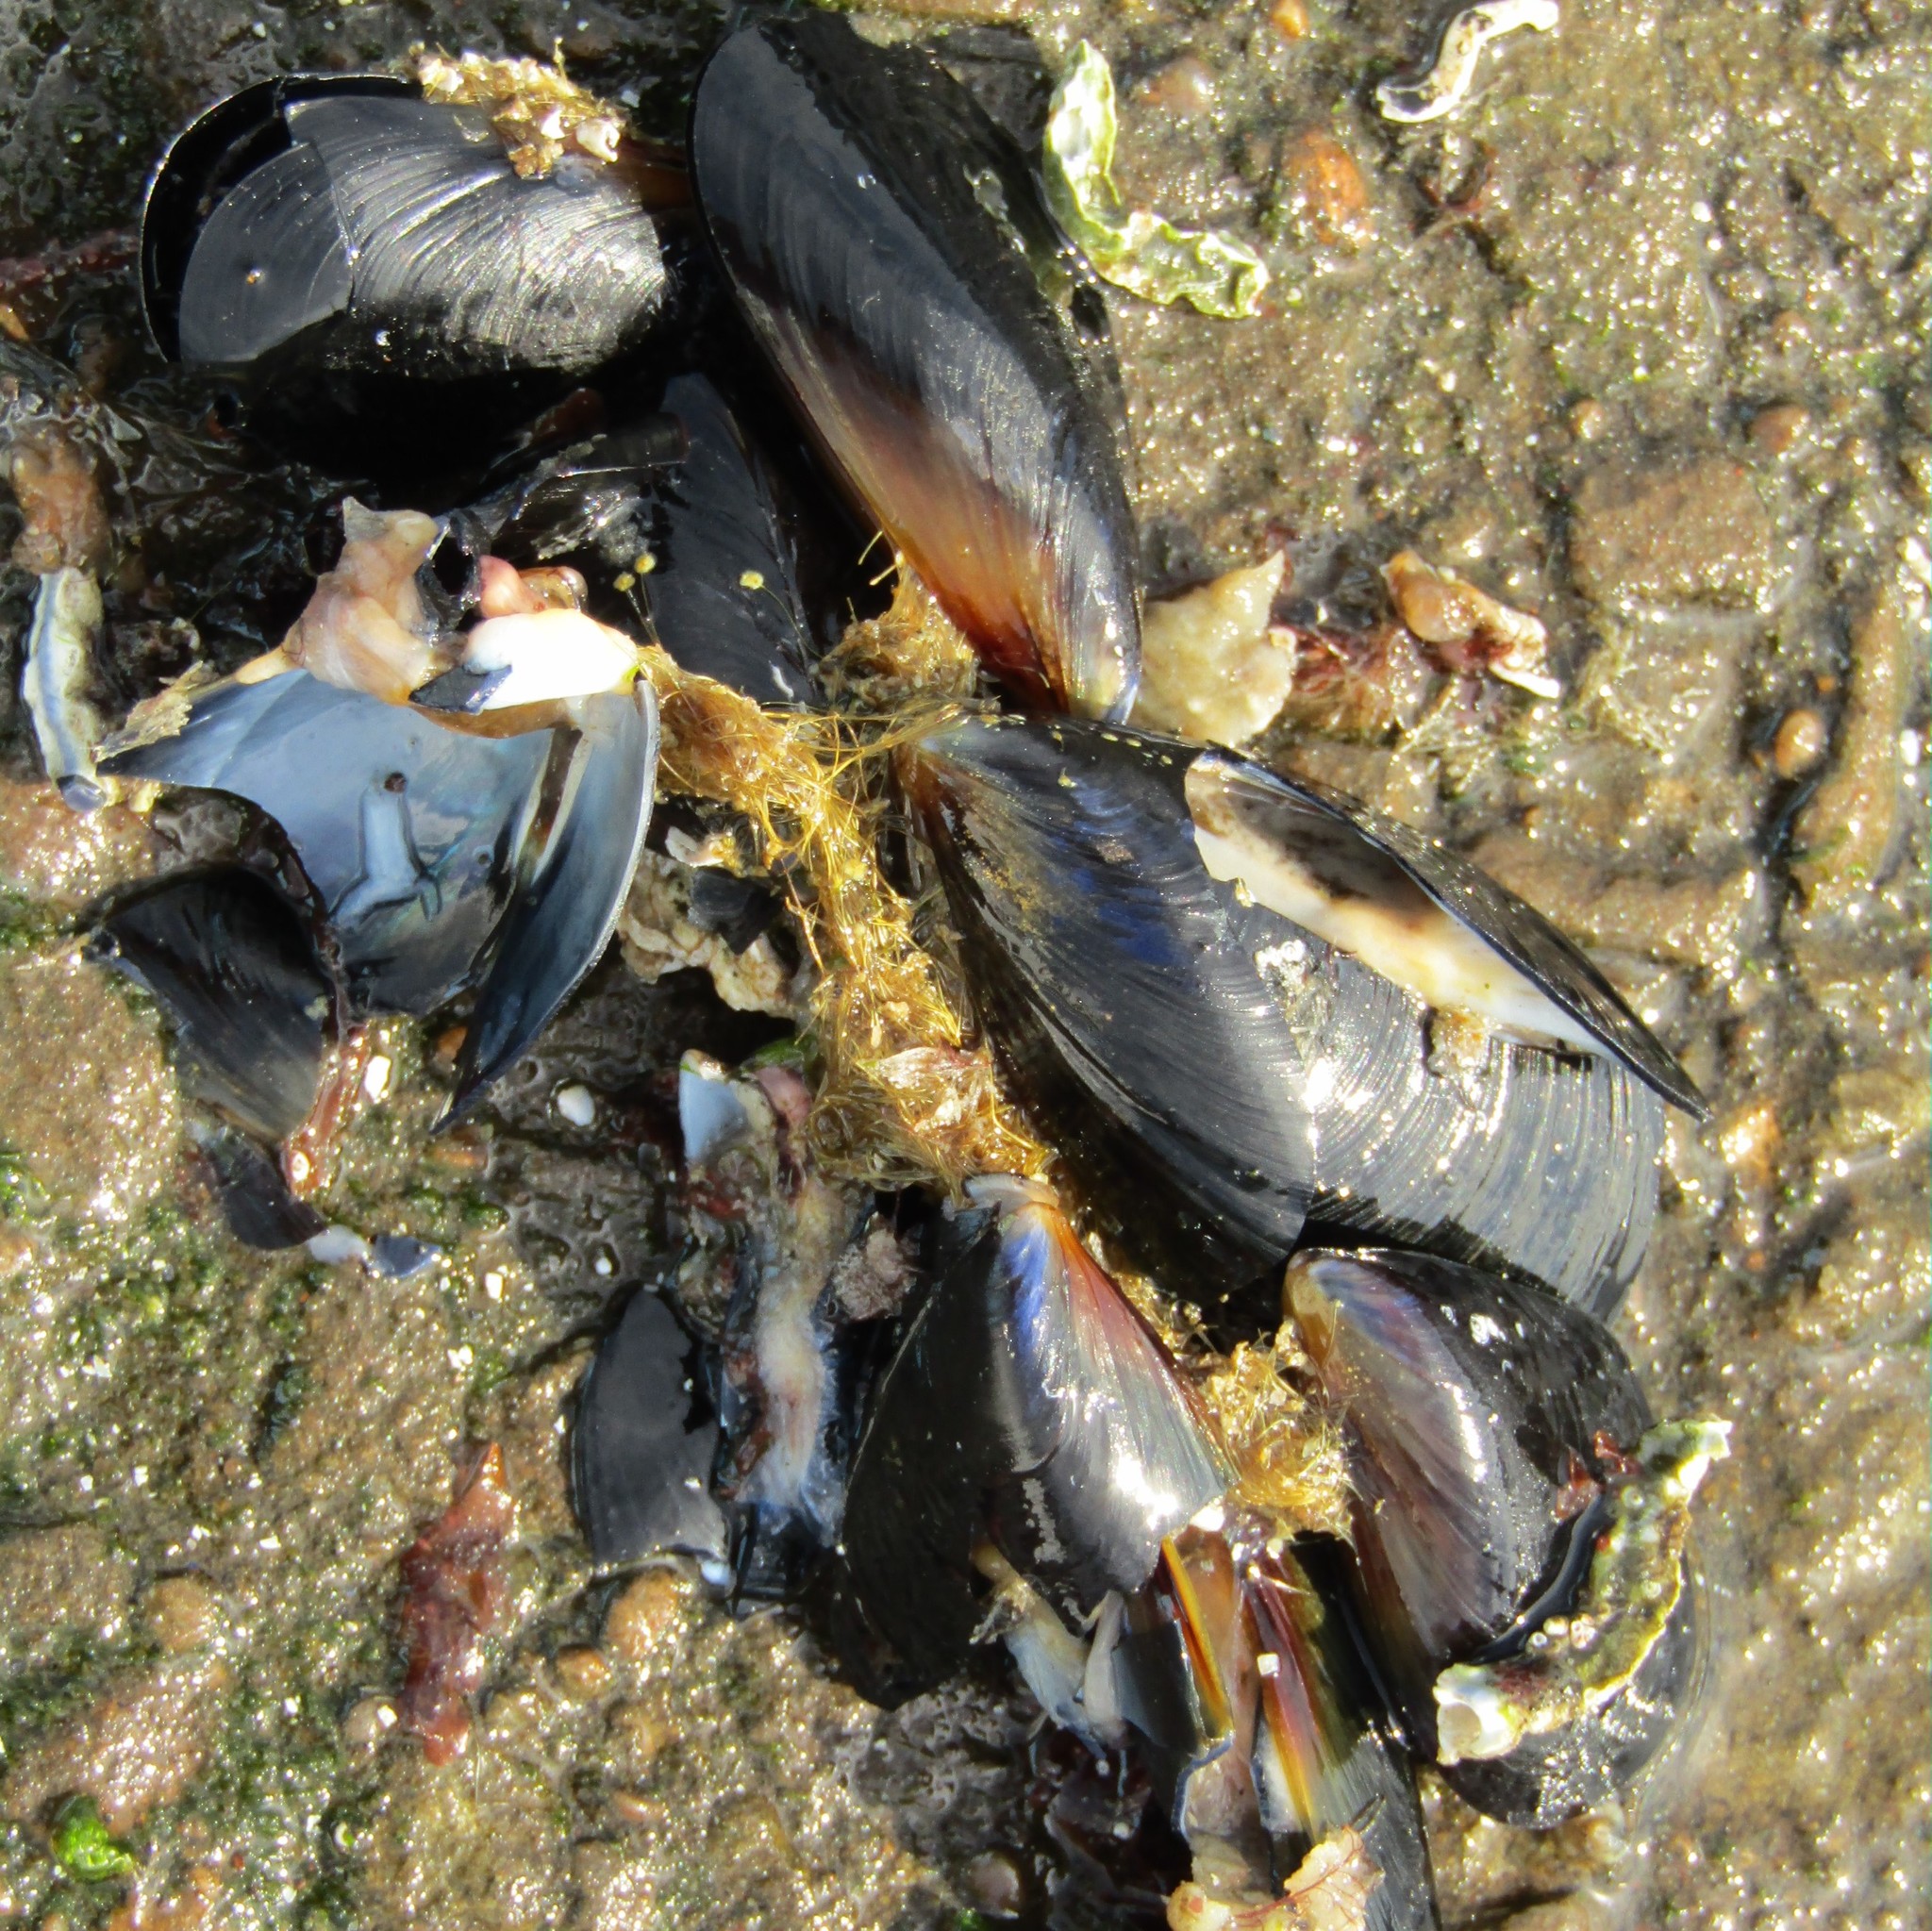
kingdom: Animalia
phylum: Mollusca
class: Bivalvia
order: Mytilida
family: Mytilidae
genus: Mytilus
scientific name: Mytilus planulatus
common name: Australian mussel
